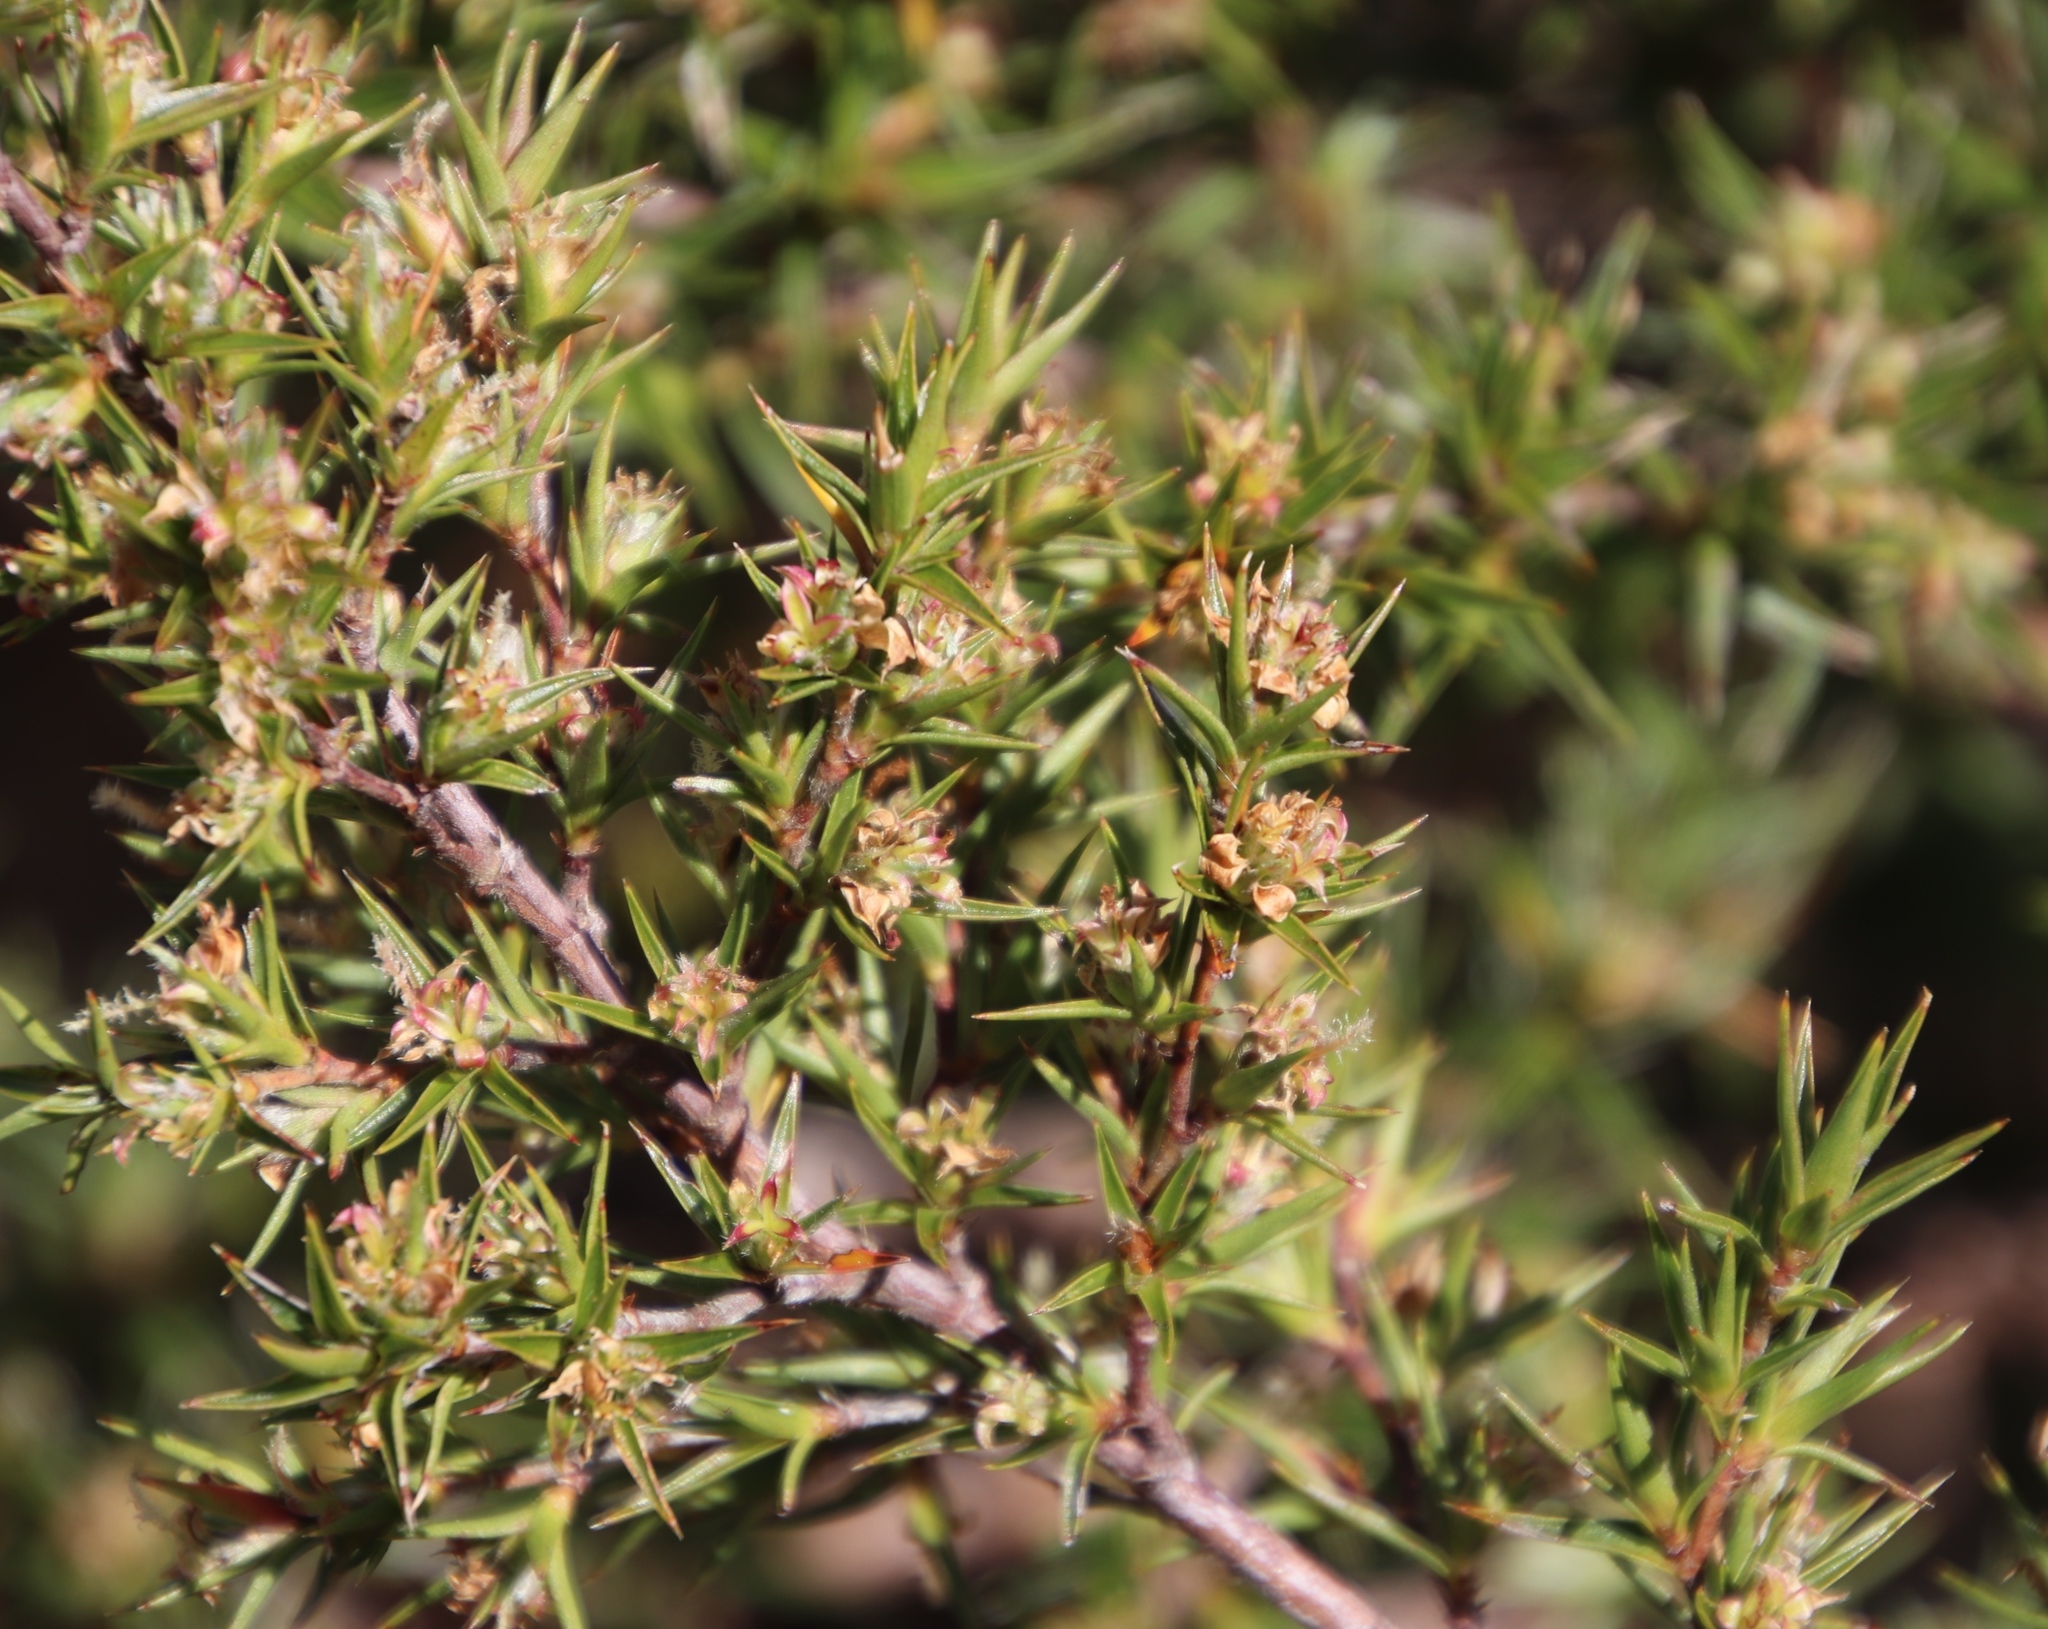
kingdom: Plantae
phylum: Tracheophyta
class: Magnoliopsida
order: Rosales
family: Rosaceae
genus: Cliffortia
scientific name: Cliffortia ruscifolia
